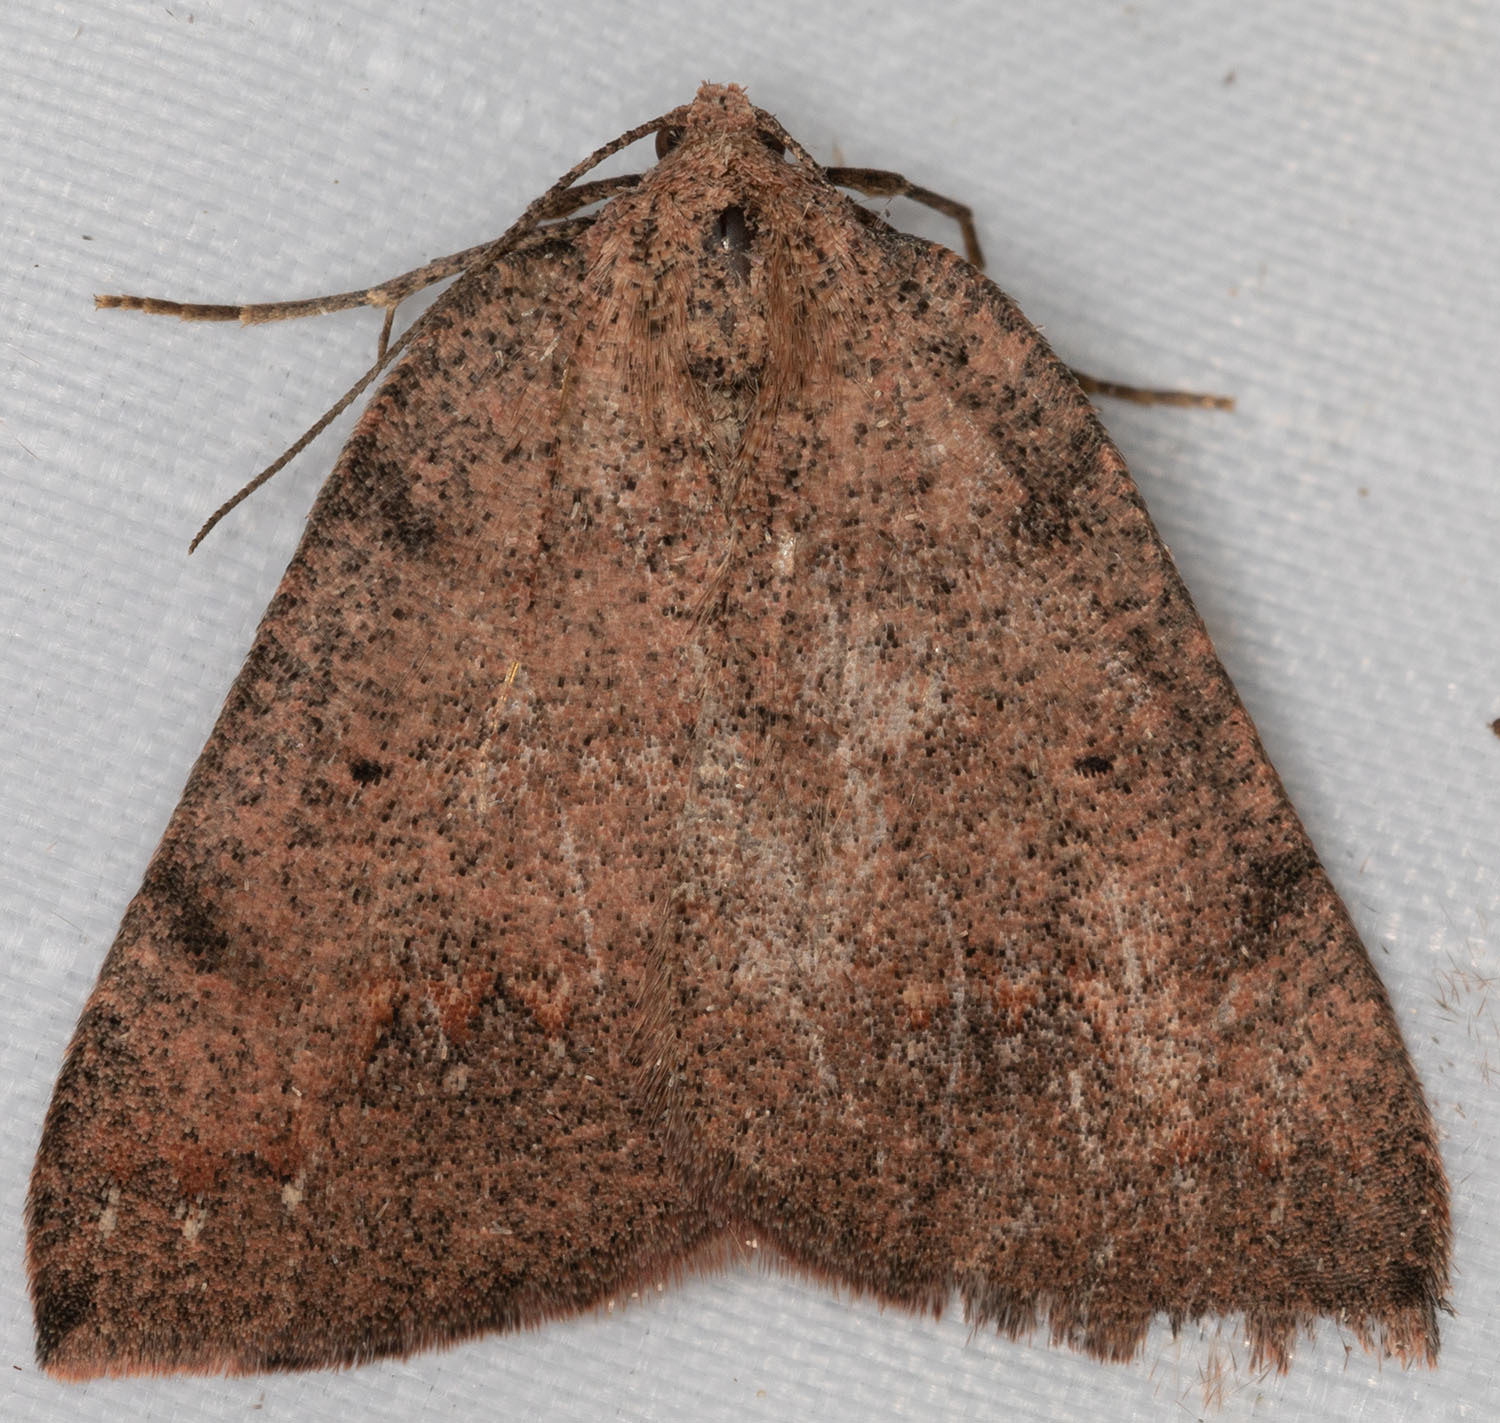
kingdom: Animalia
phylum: Arthropoda
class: Insecta
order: Lepidoptera
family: Geometridae
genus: Drepanulatrix
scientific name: Drepanulatrix quadraria
